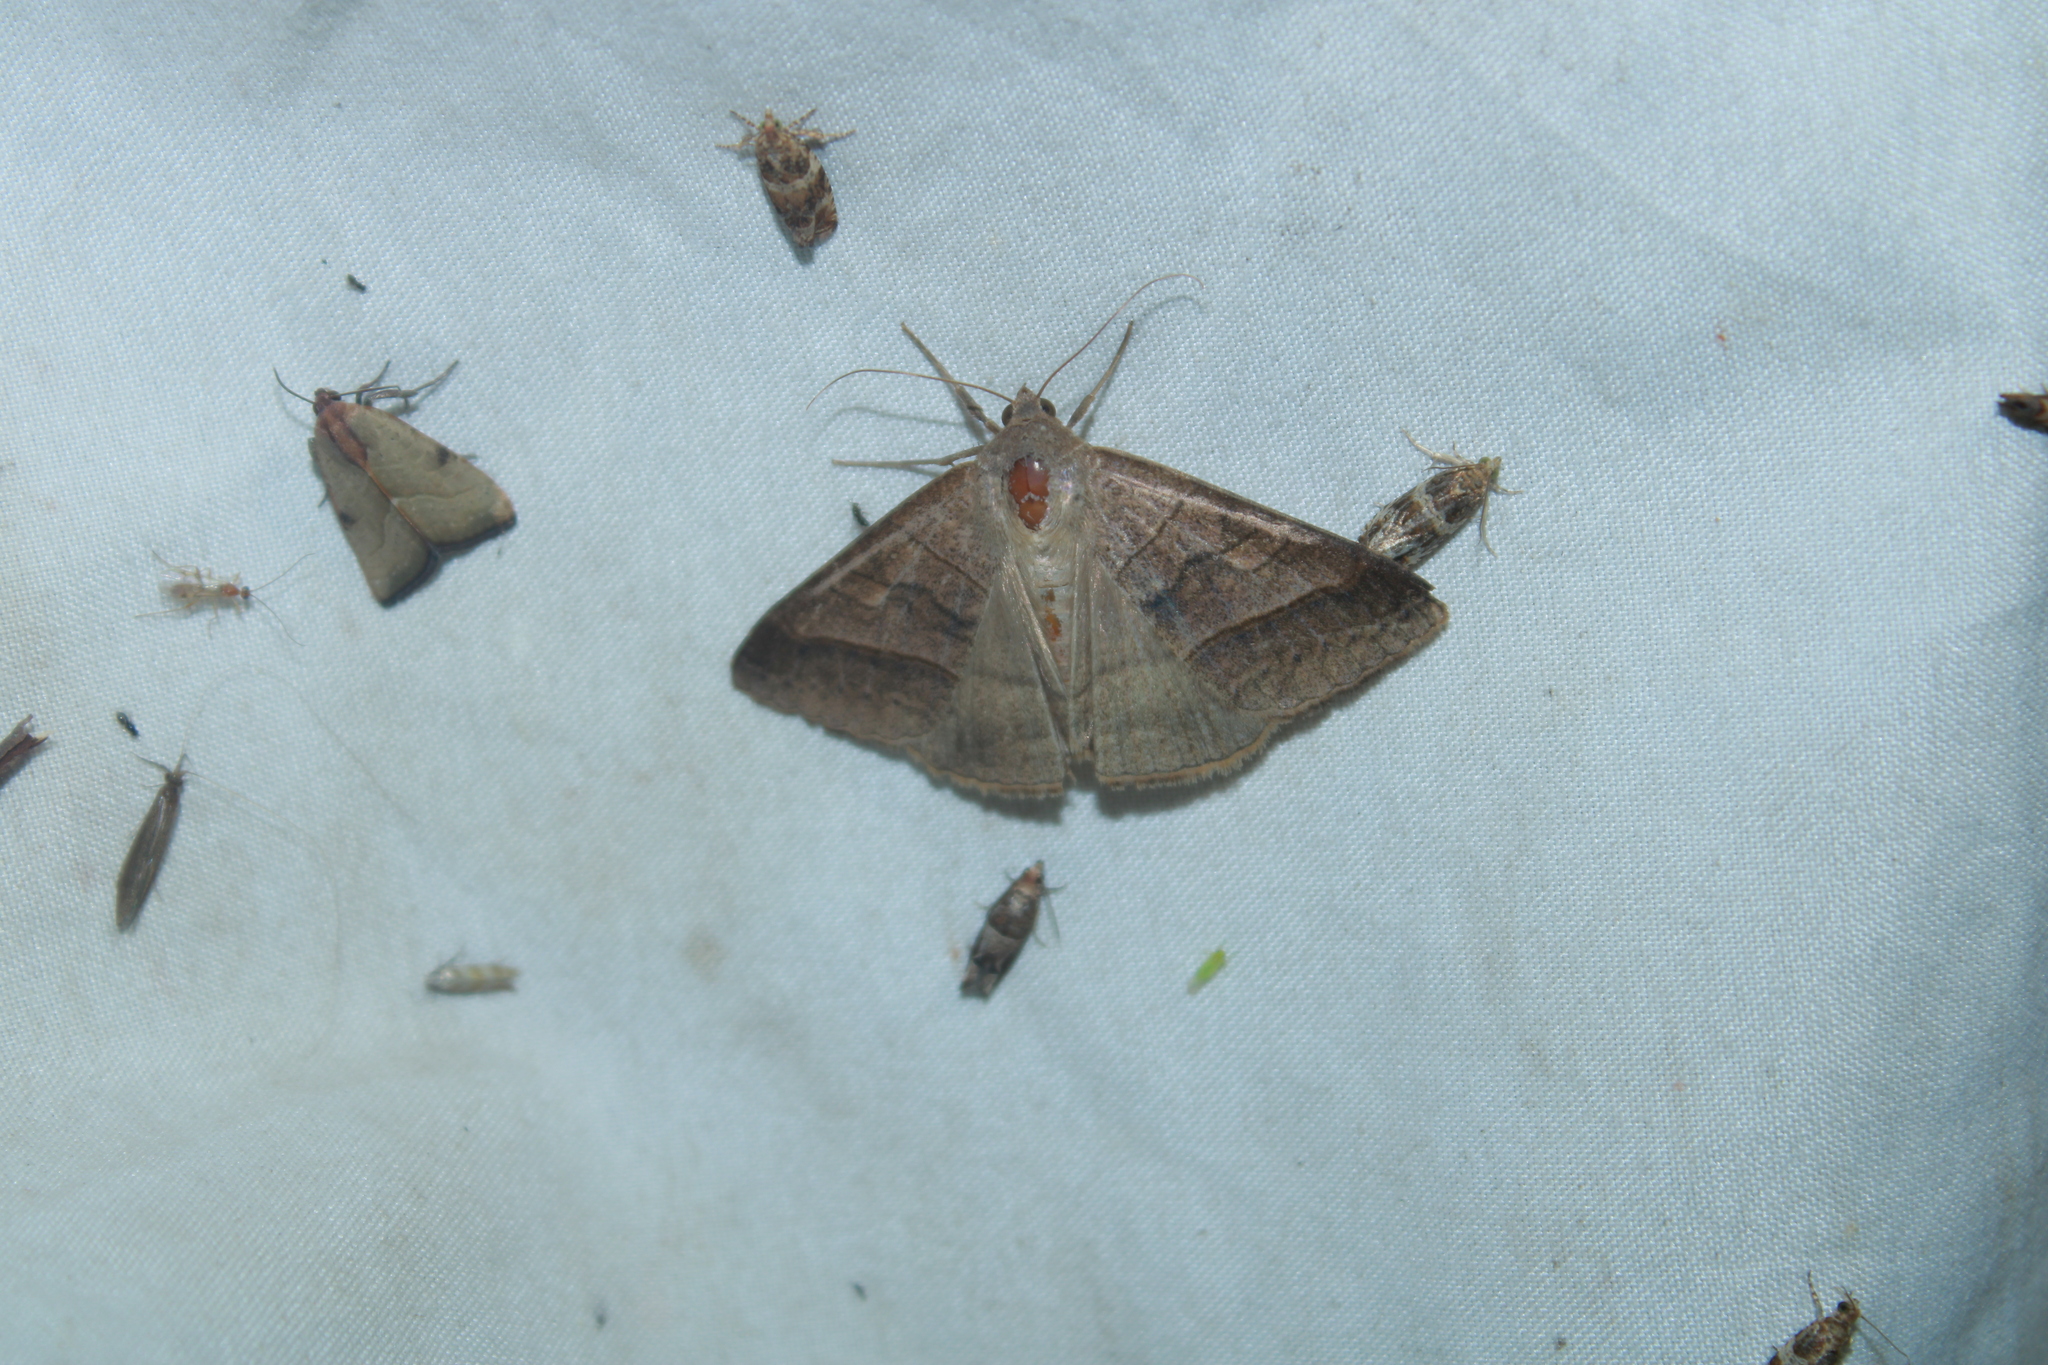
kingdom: Animalia
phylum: Arthropoda
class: Insecta
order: Lepidoptera
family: Erebidae
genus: Mocis
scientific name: Mocis texana
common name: Texas mocis moth
